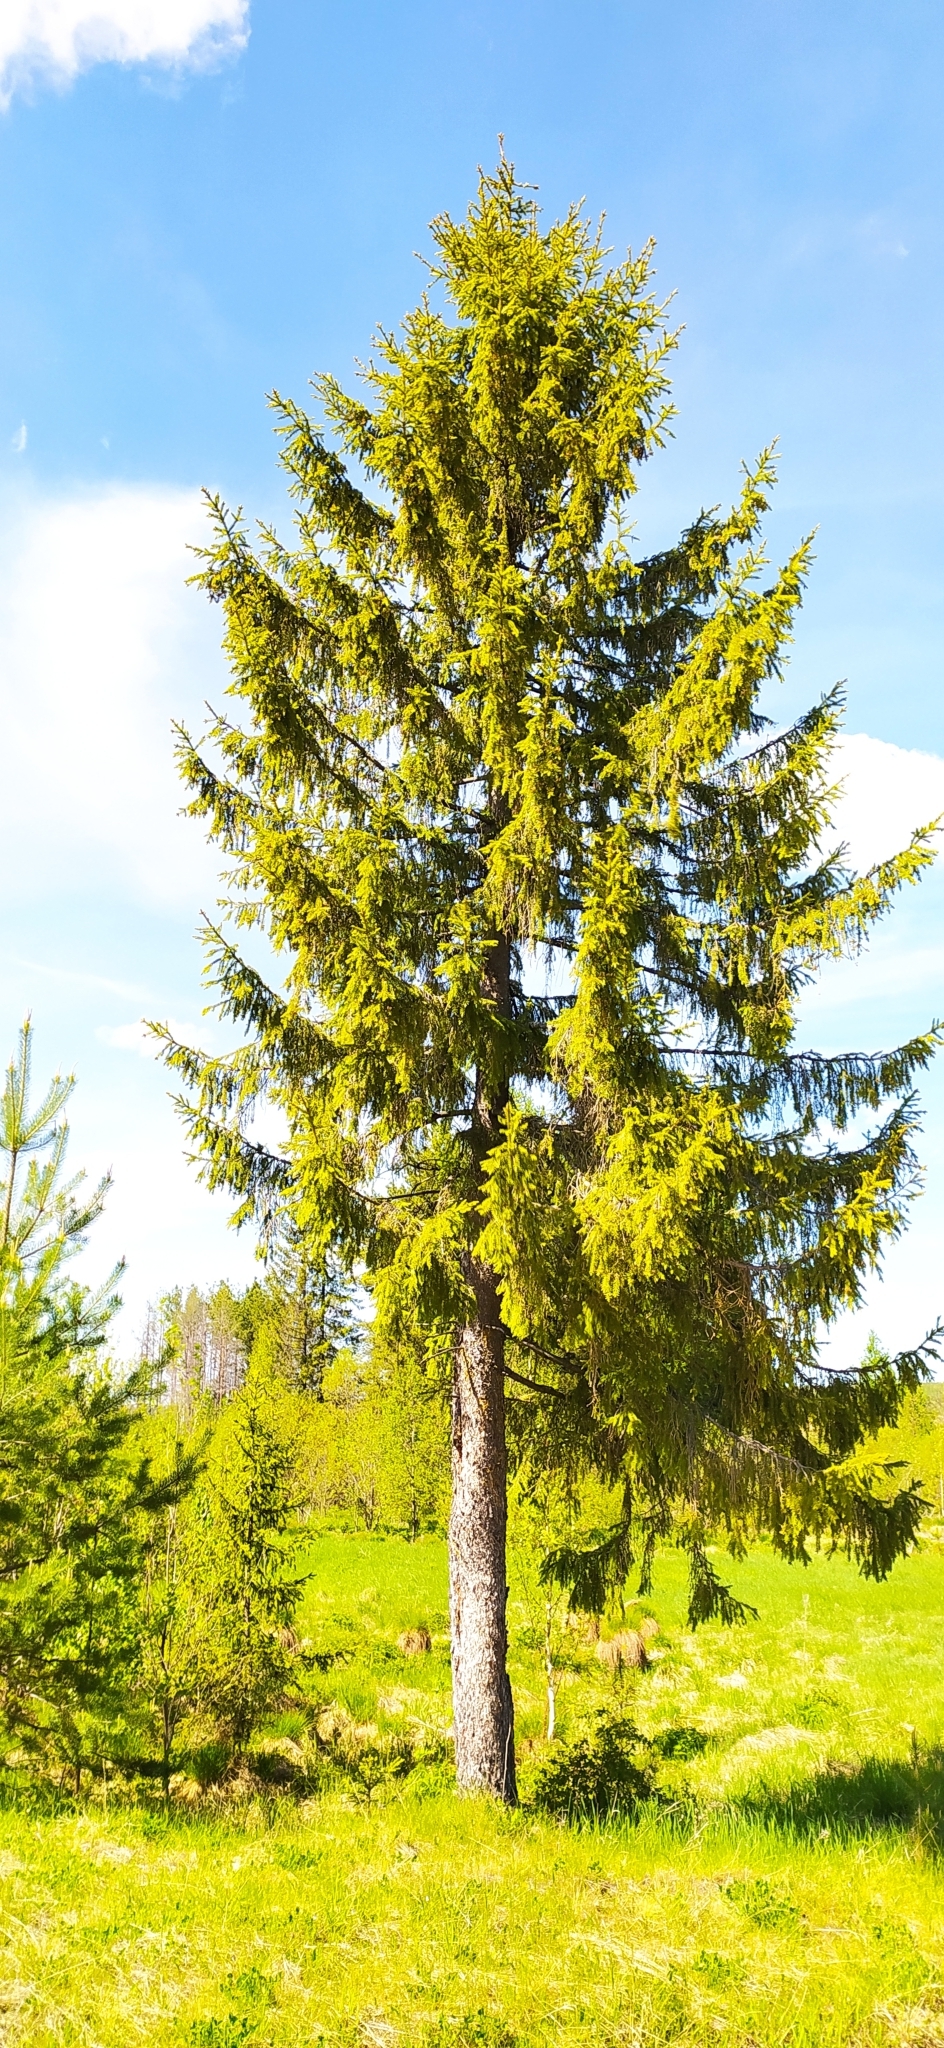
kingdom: Plantae
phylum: Tracheophyta
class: Pinopsida
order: Pinales
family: Pinaceae
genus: Picea
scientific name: Picea obovata
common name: Siberian spruce
